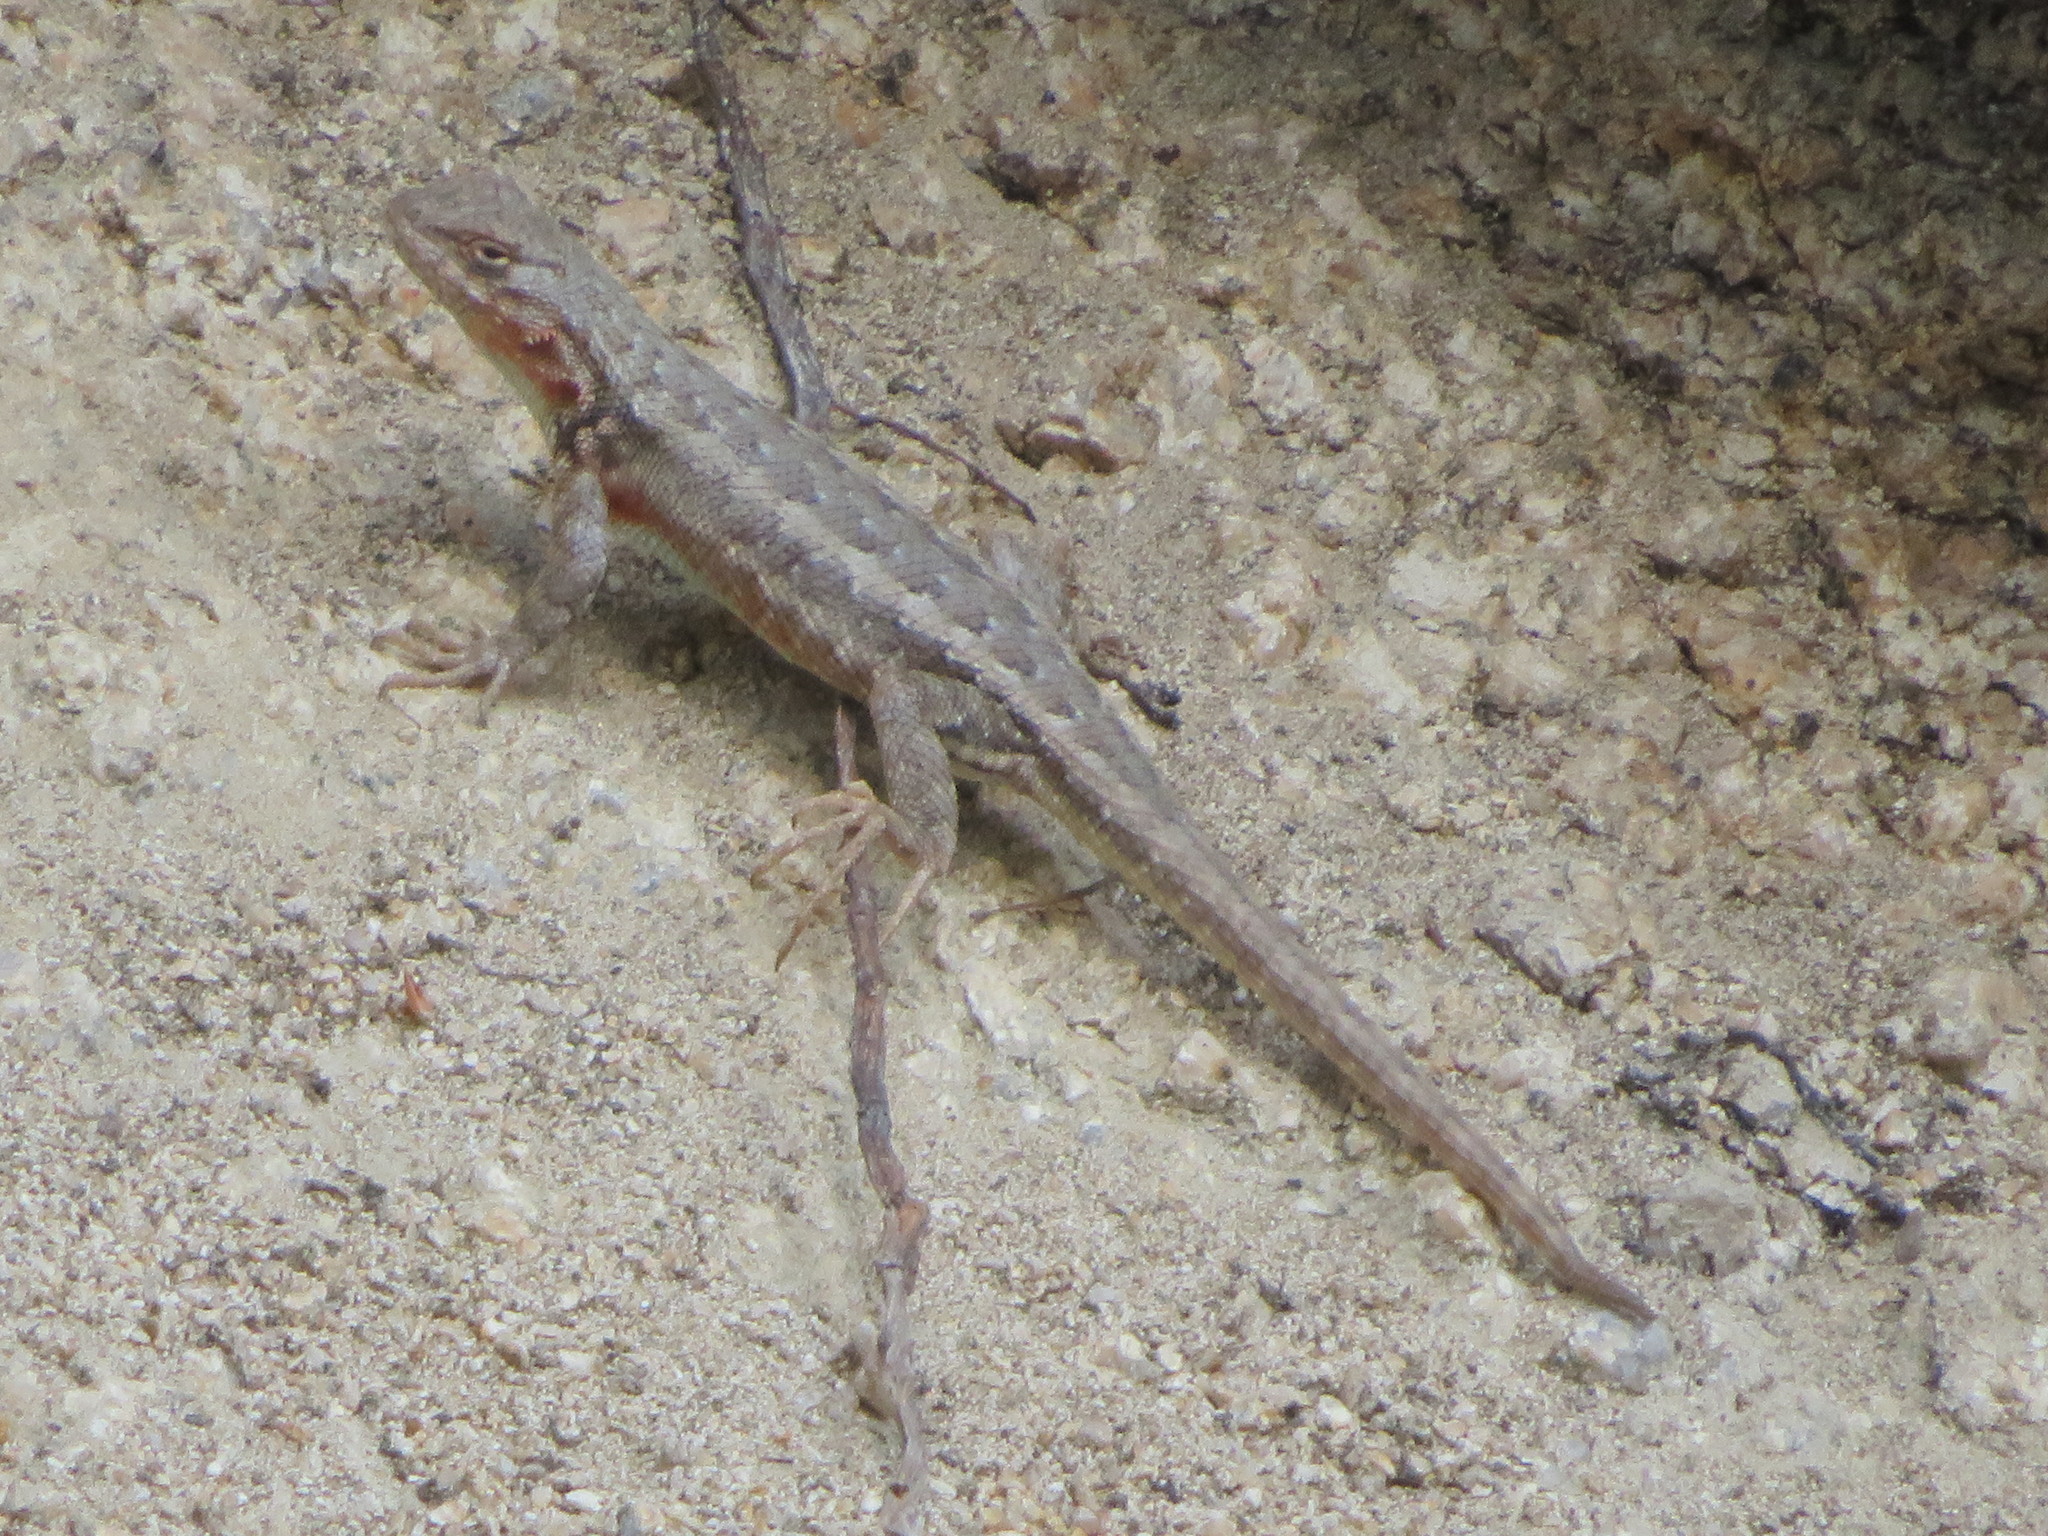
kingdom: Animalia
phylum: Chordata
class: Squamata
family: Phrynosomatidae
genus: Sceloporus
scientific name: Sceloporus graciosus
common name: Sagebrush lizard
